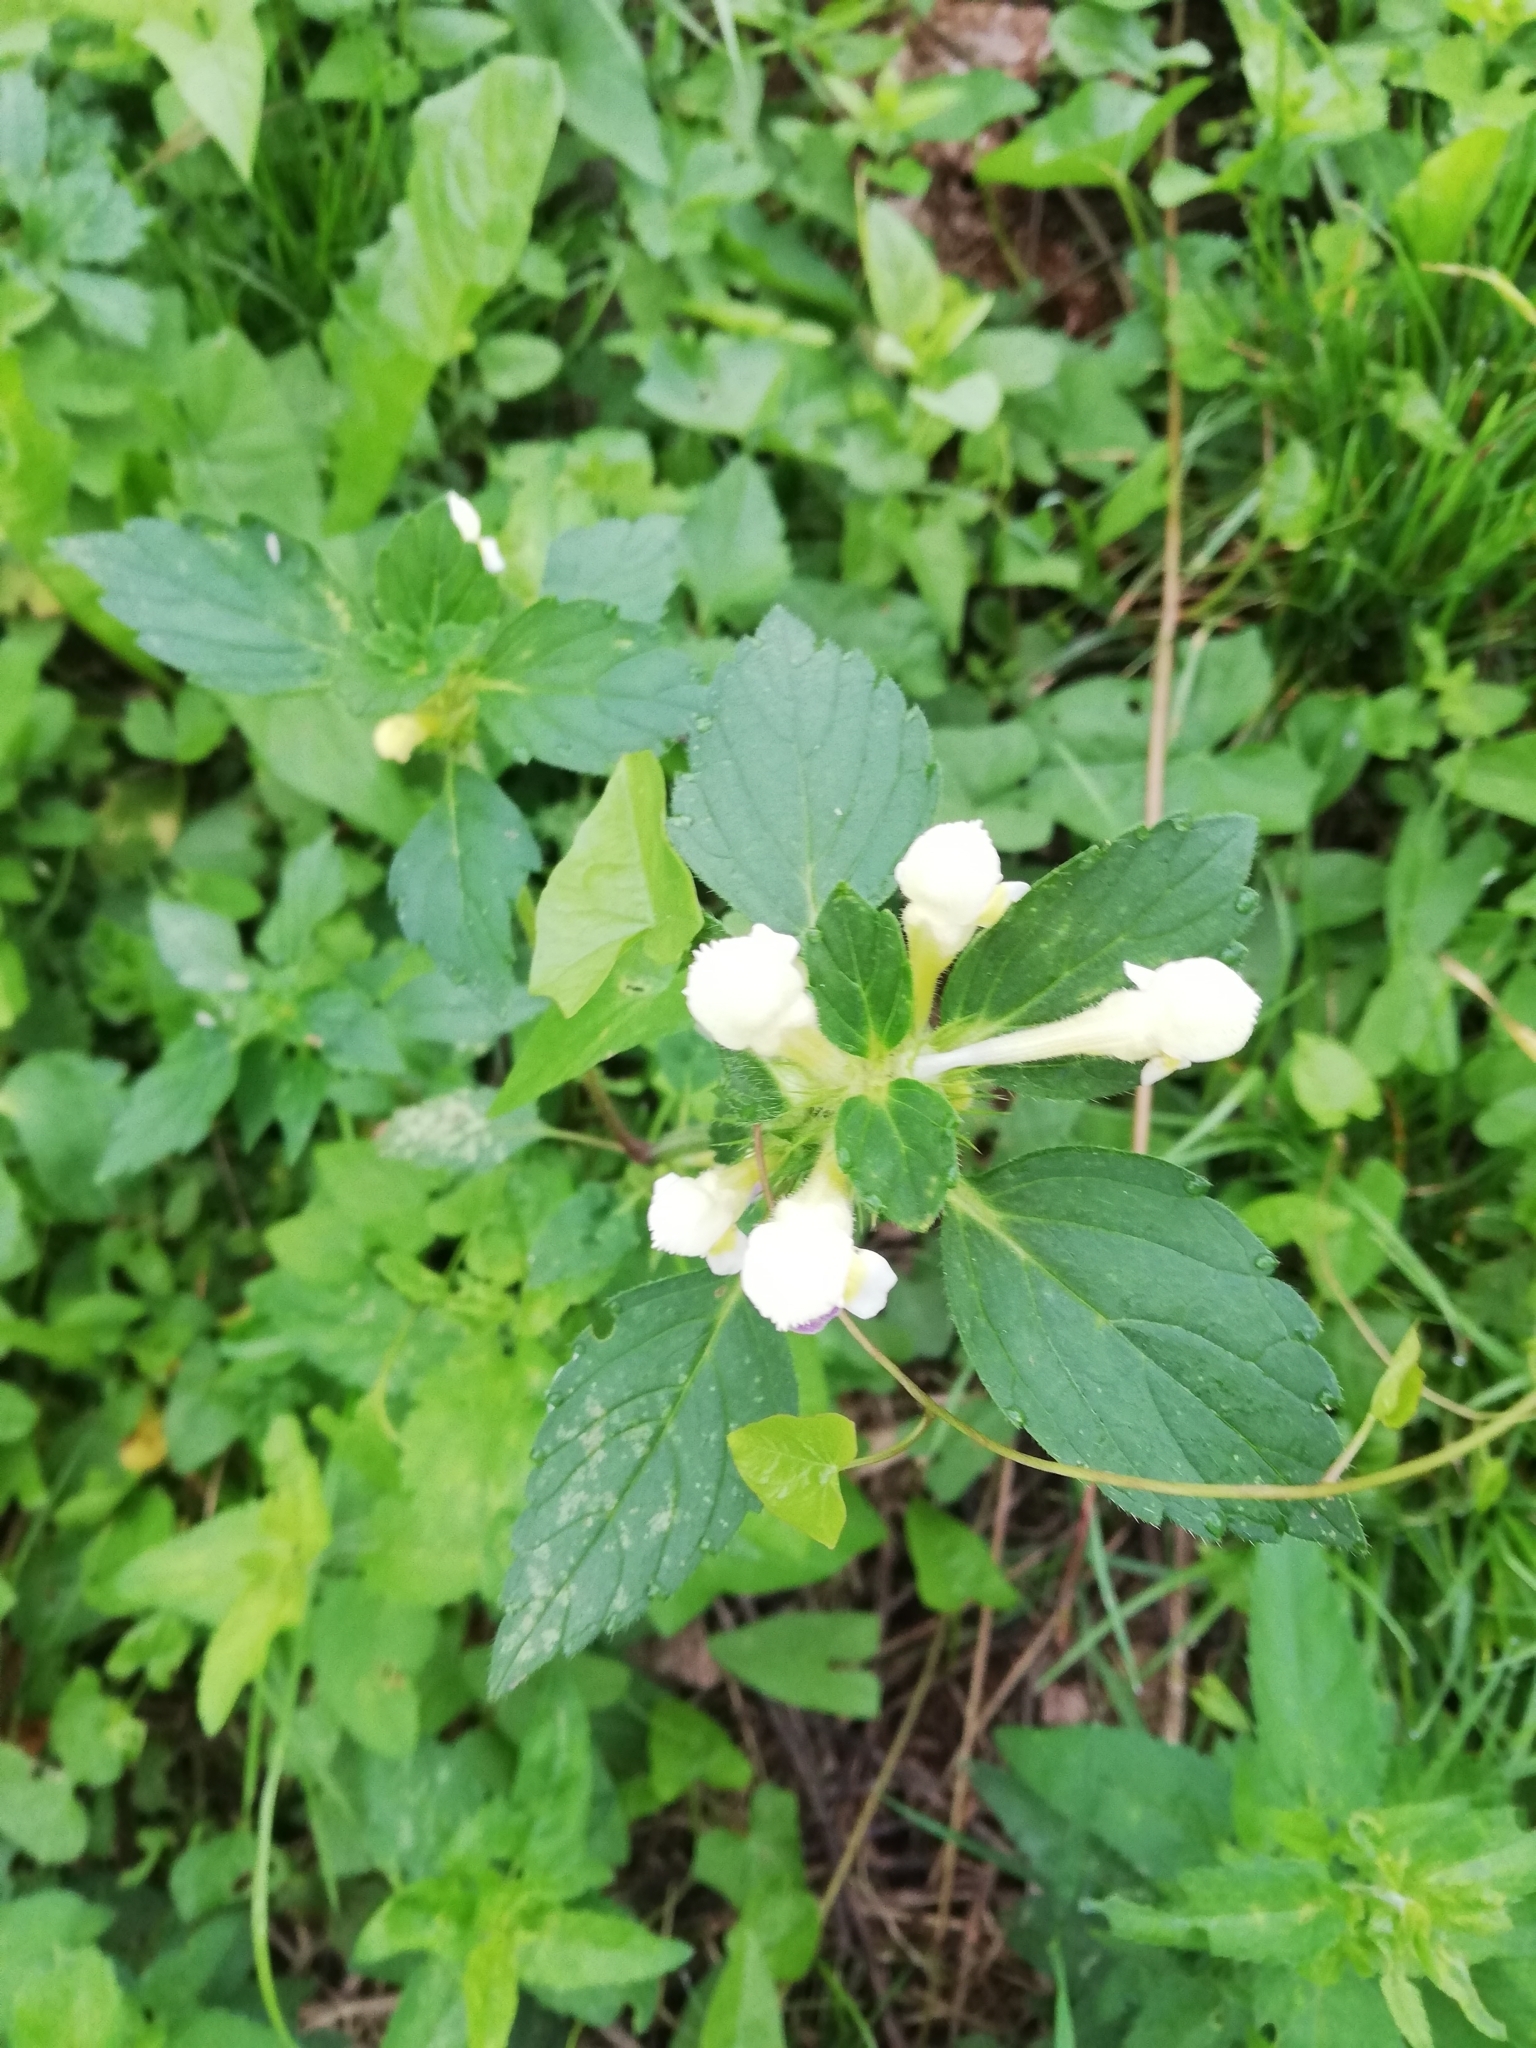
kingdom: Plantae
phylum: Tracheophyta
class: Magnoliopsida
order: Lamiales
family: Lamiaceae
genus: Galeopsis
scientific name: Galeopsis speciosa
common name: Large-flowered hemp-nettle
